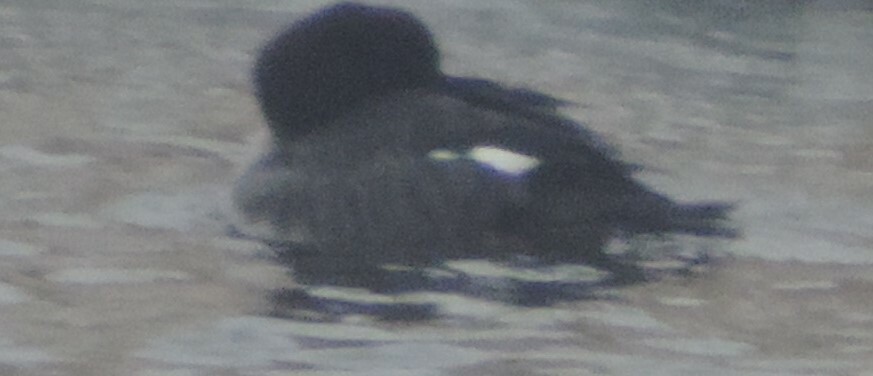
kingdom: Animalia
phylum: Chordata
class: Aves
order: Anseriformes
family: Anatidae
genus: Bucephala
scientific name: Bucephala islandica
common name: Barrow's goldeneye
